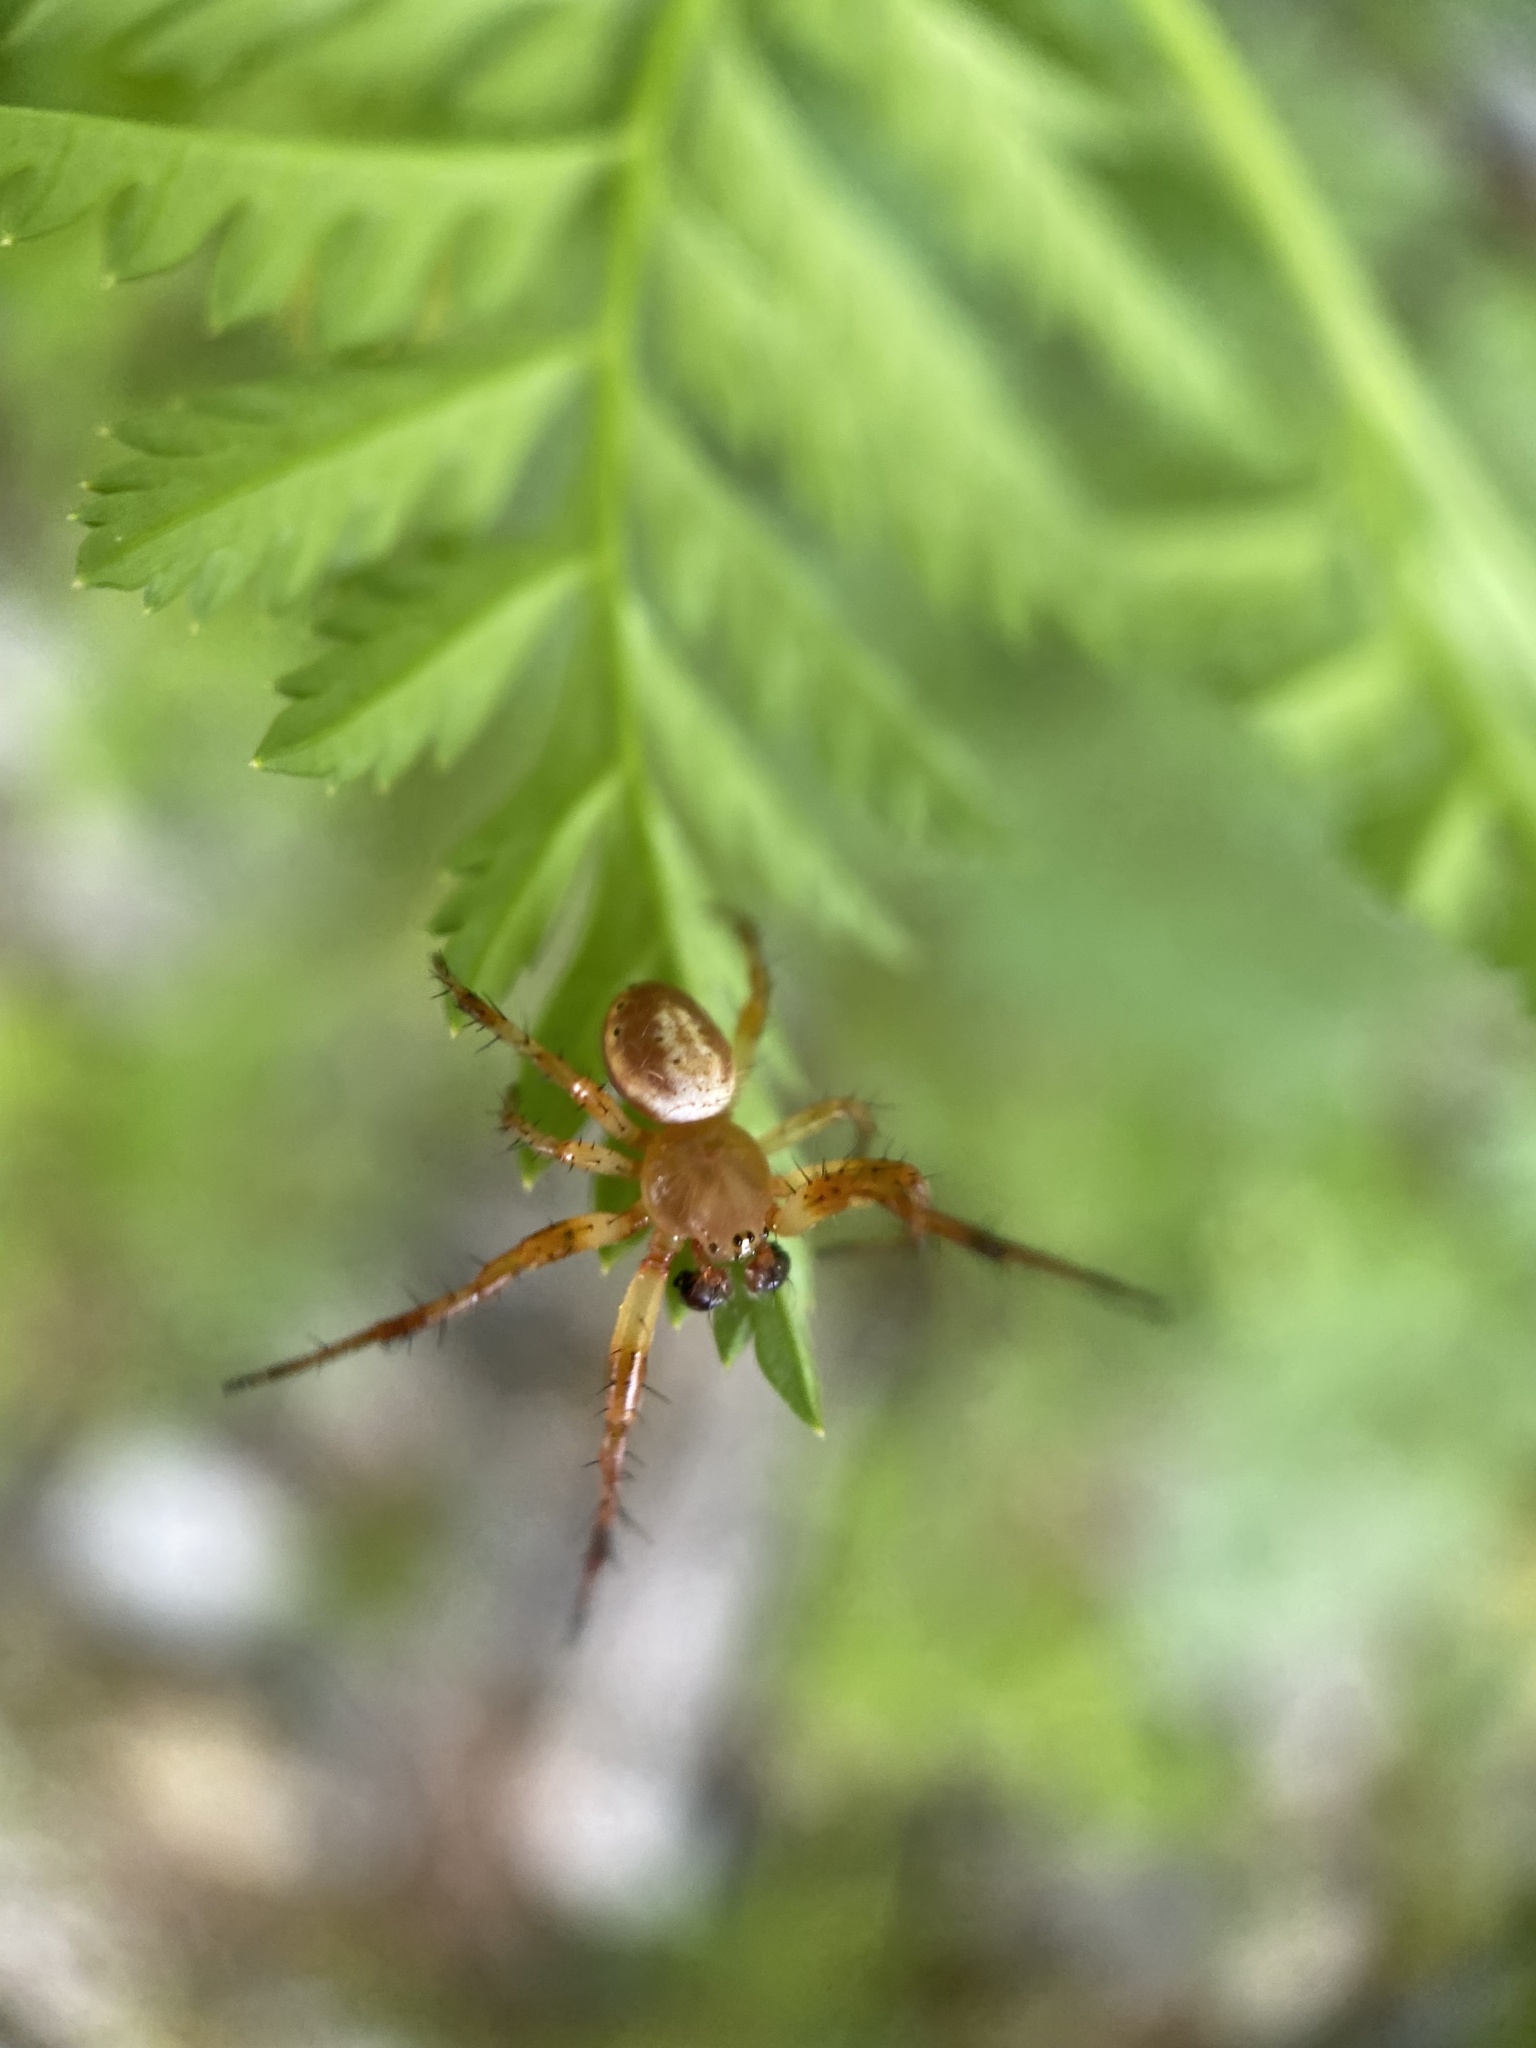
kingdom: Animalia
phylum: Arthropoda
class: Arachnida
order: Araneae
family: Araneidae
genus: Araniella
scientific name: Araniella displicata
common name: Sixspotted orb weaver
